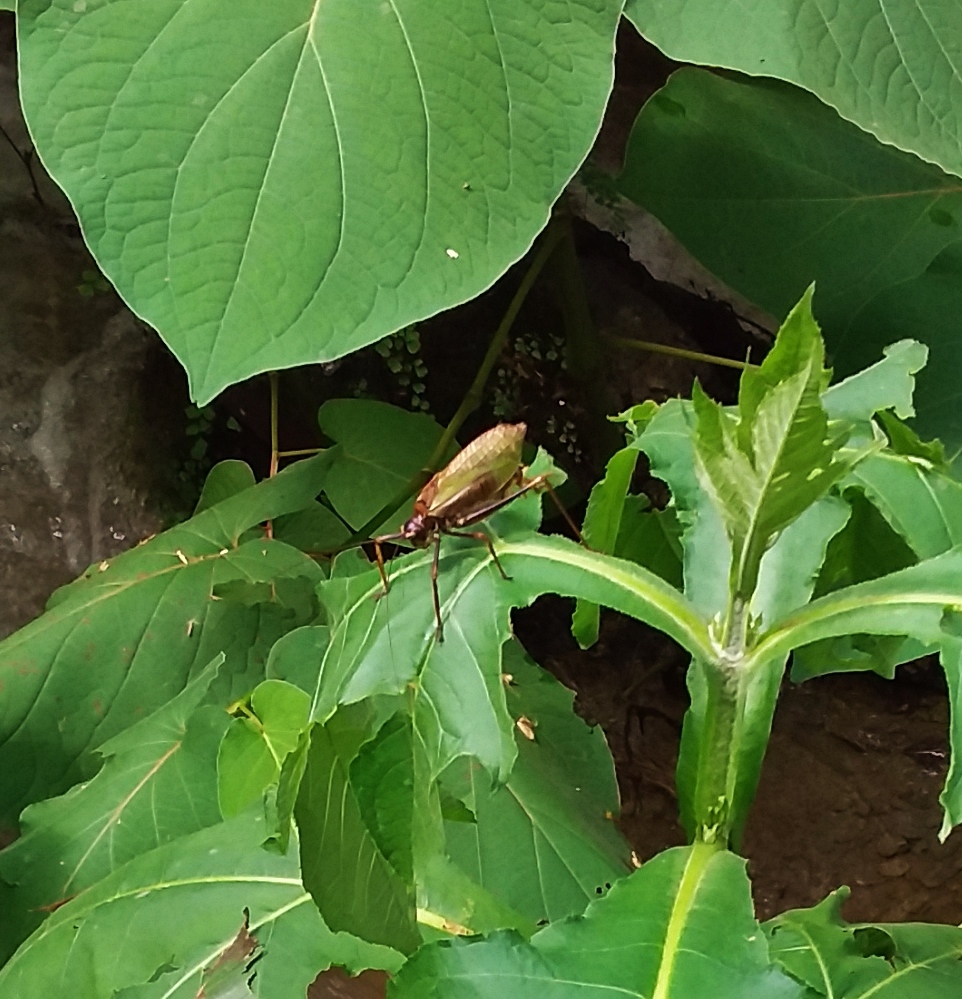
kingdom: Animalia
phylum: Arthropoda
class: Insecta
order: Orthoptera
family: Tettigoniidae
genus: Pterophylla
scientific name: Pterophylla beltrani
